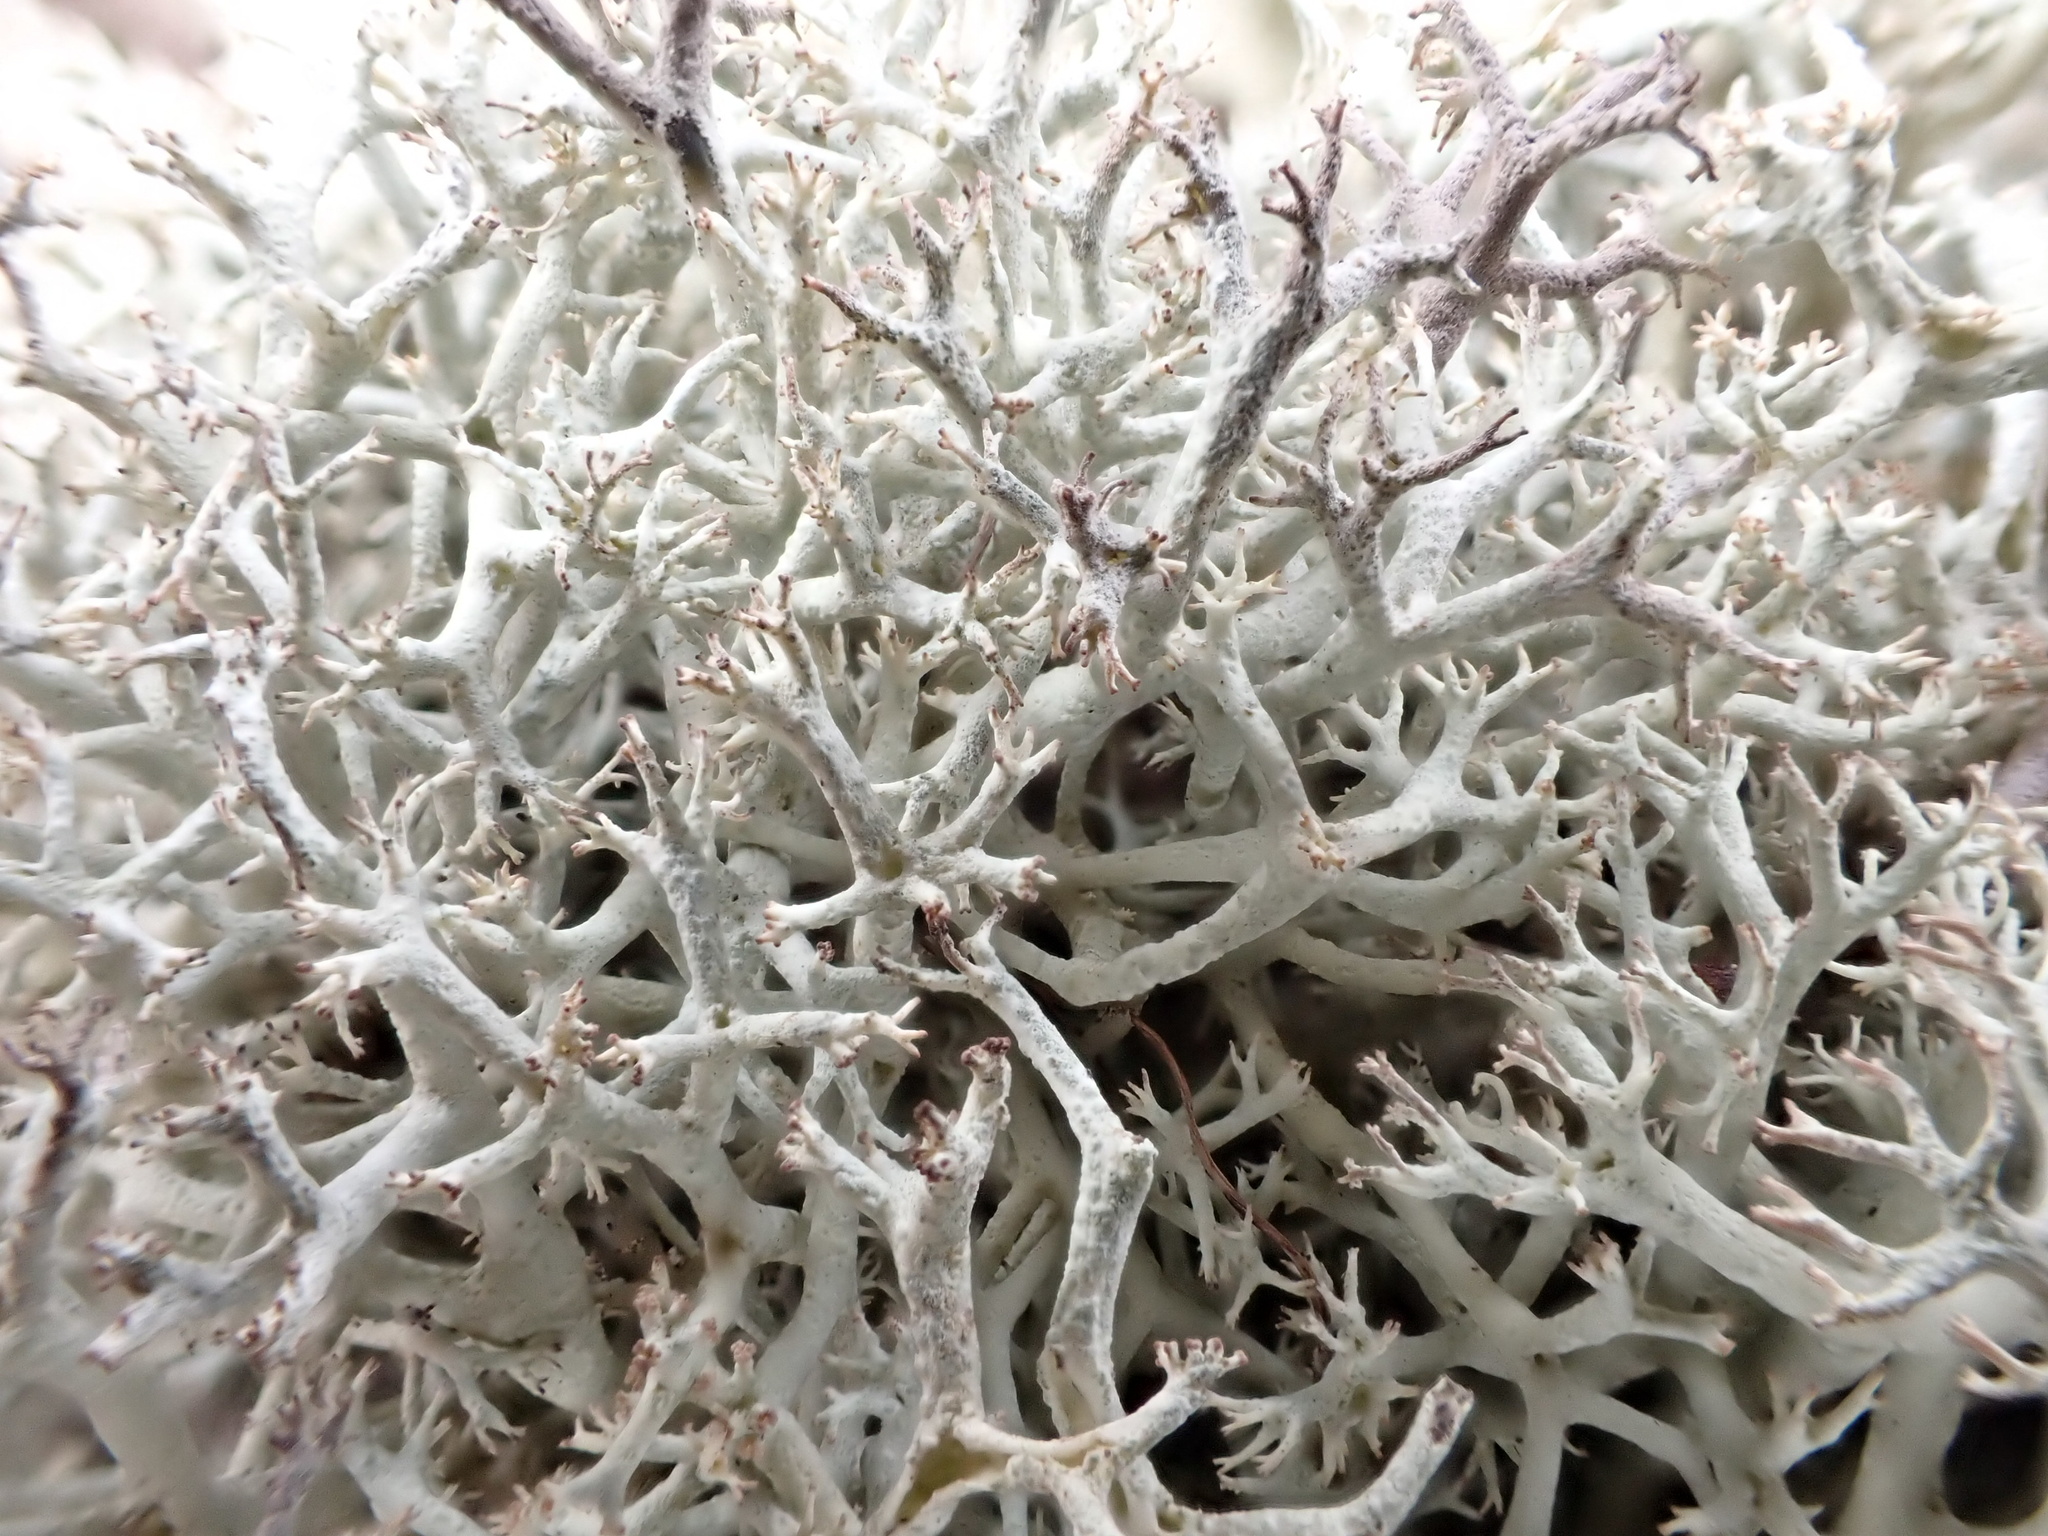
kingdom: Fungi
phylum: Ascomycota
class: Lecanoromycetes
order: Lecanorales
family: Cladoniaceae
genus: Cladonia
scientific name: Cladonia portentosa
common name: Reindeer lichen
